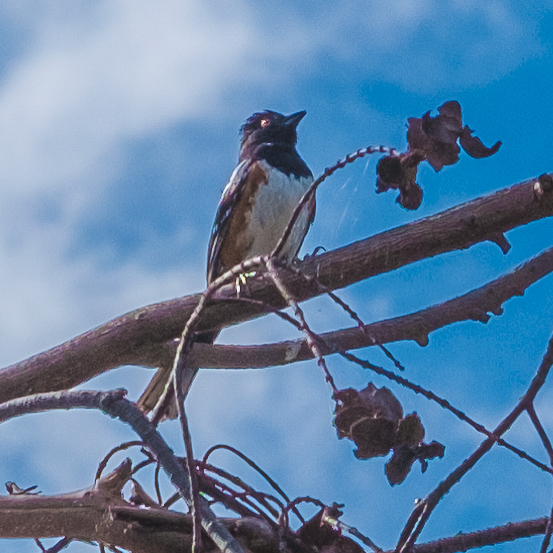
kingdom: Animalia
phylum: Chordata
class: Aves
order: Passeriformes
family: Passerellidae
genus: Pipilo
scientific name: Pipilo maculatus
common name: Spotted towhee
